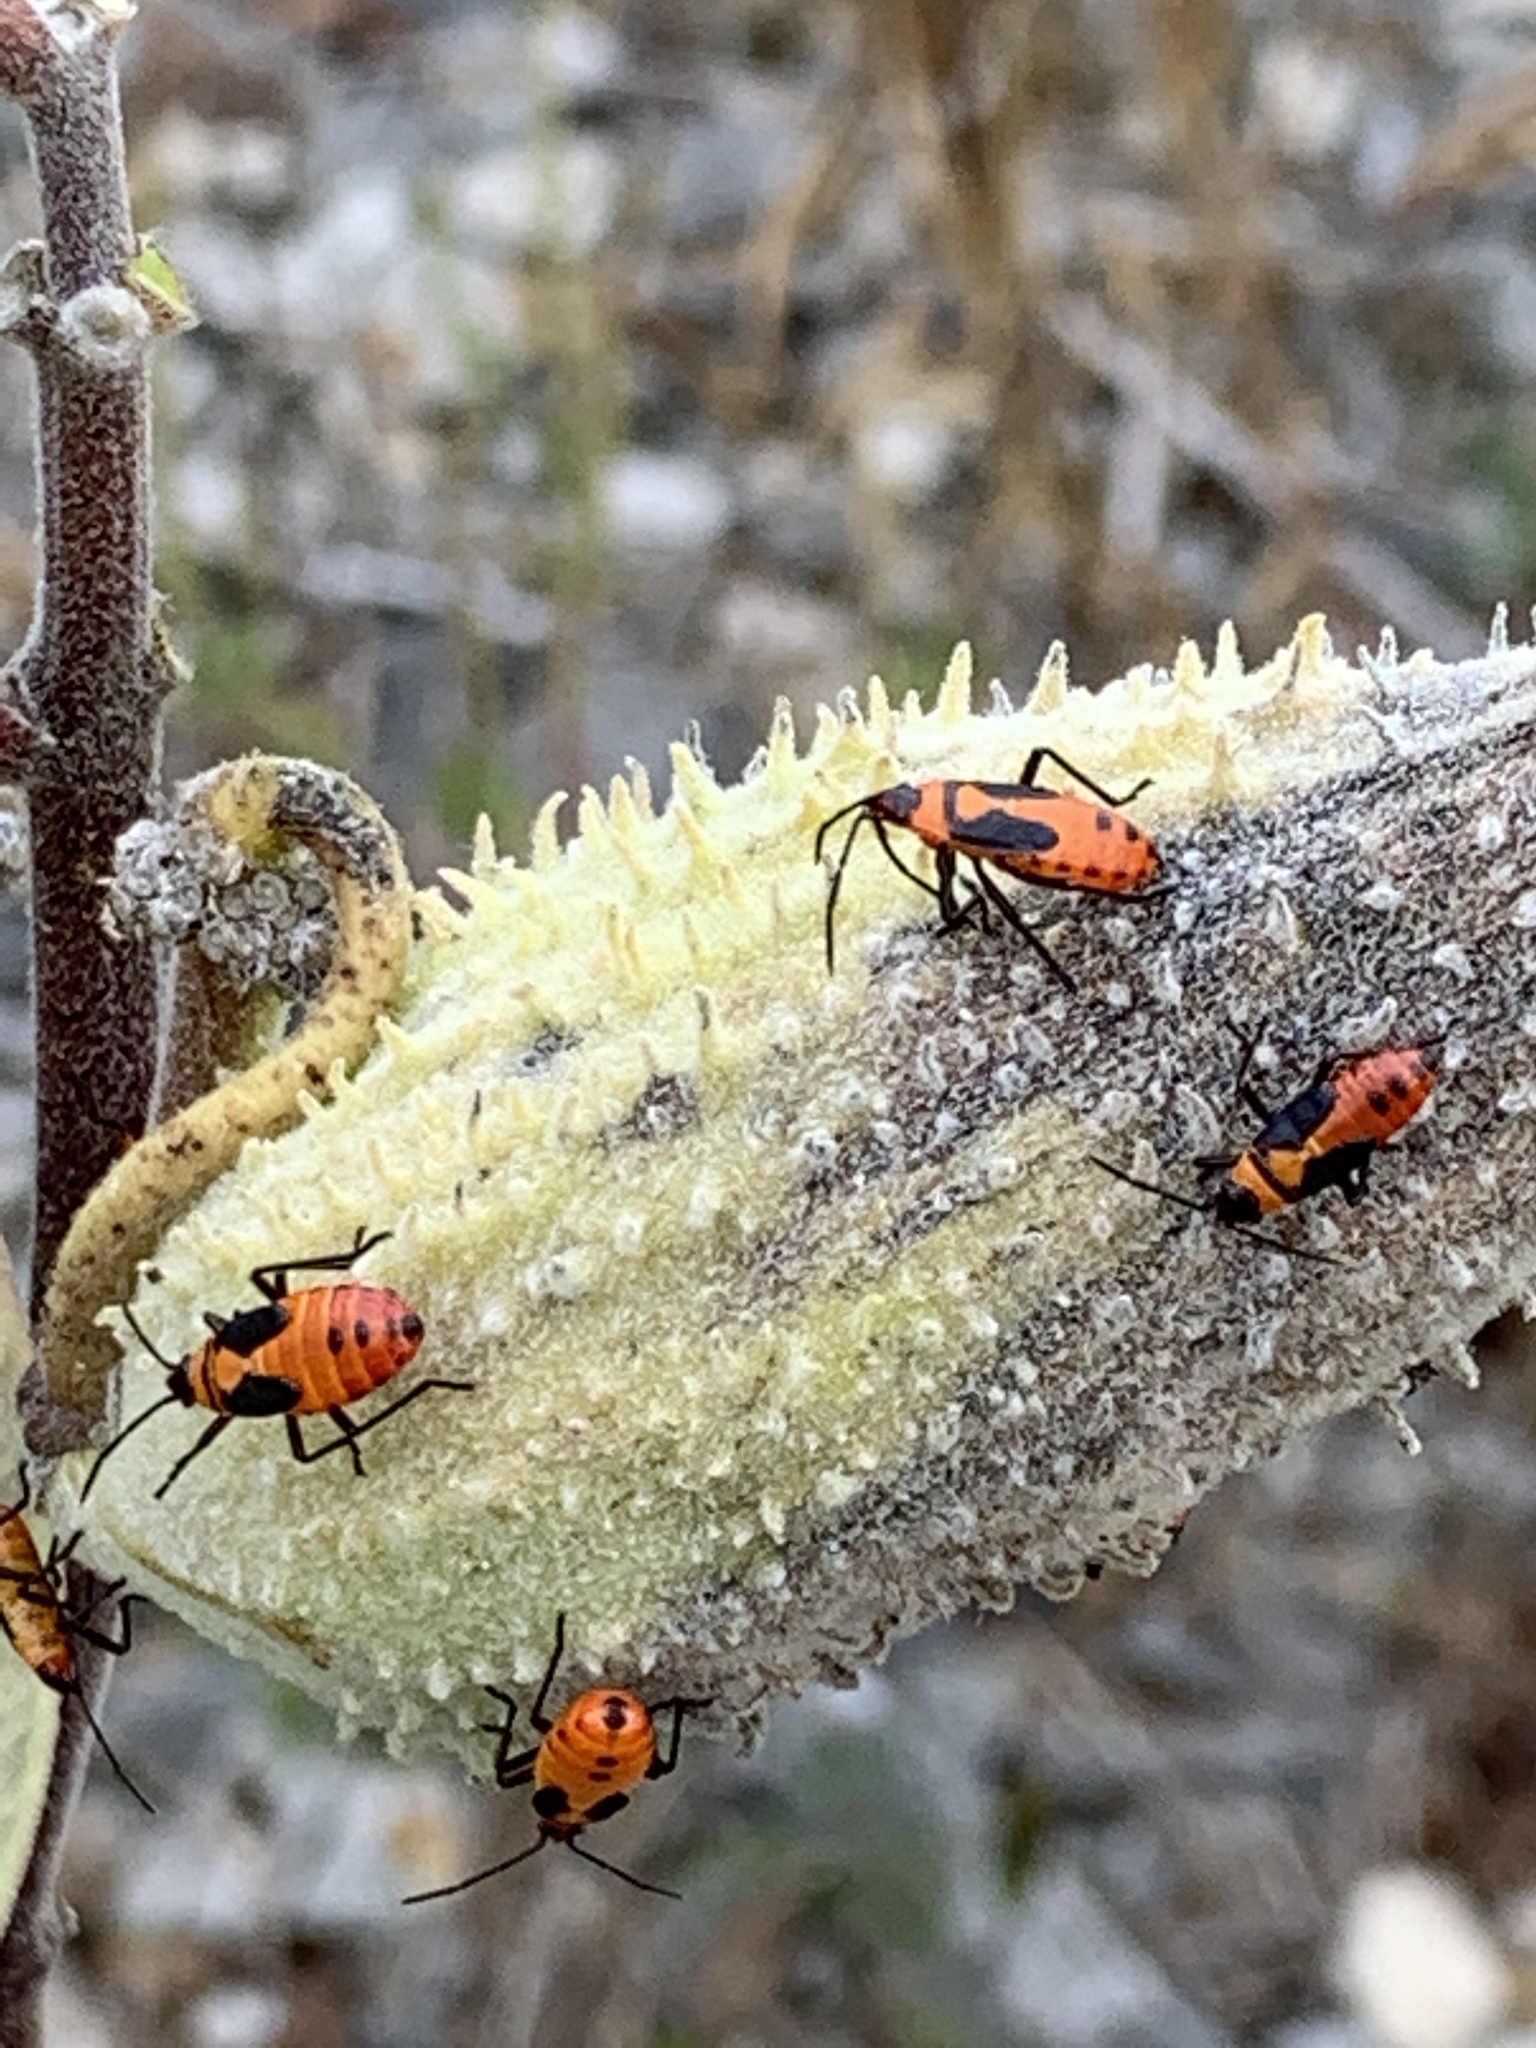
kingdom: Animalia
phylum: Arthropoda
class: Insecta
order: Hemiptera
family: Lygaeidae
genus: Oncopeltus
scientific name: Oncopeltus fasciatus
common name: Large milkweed bug
